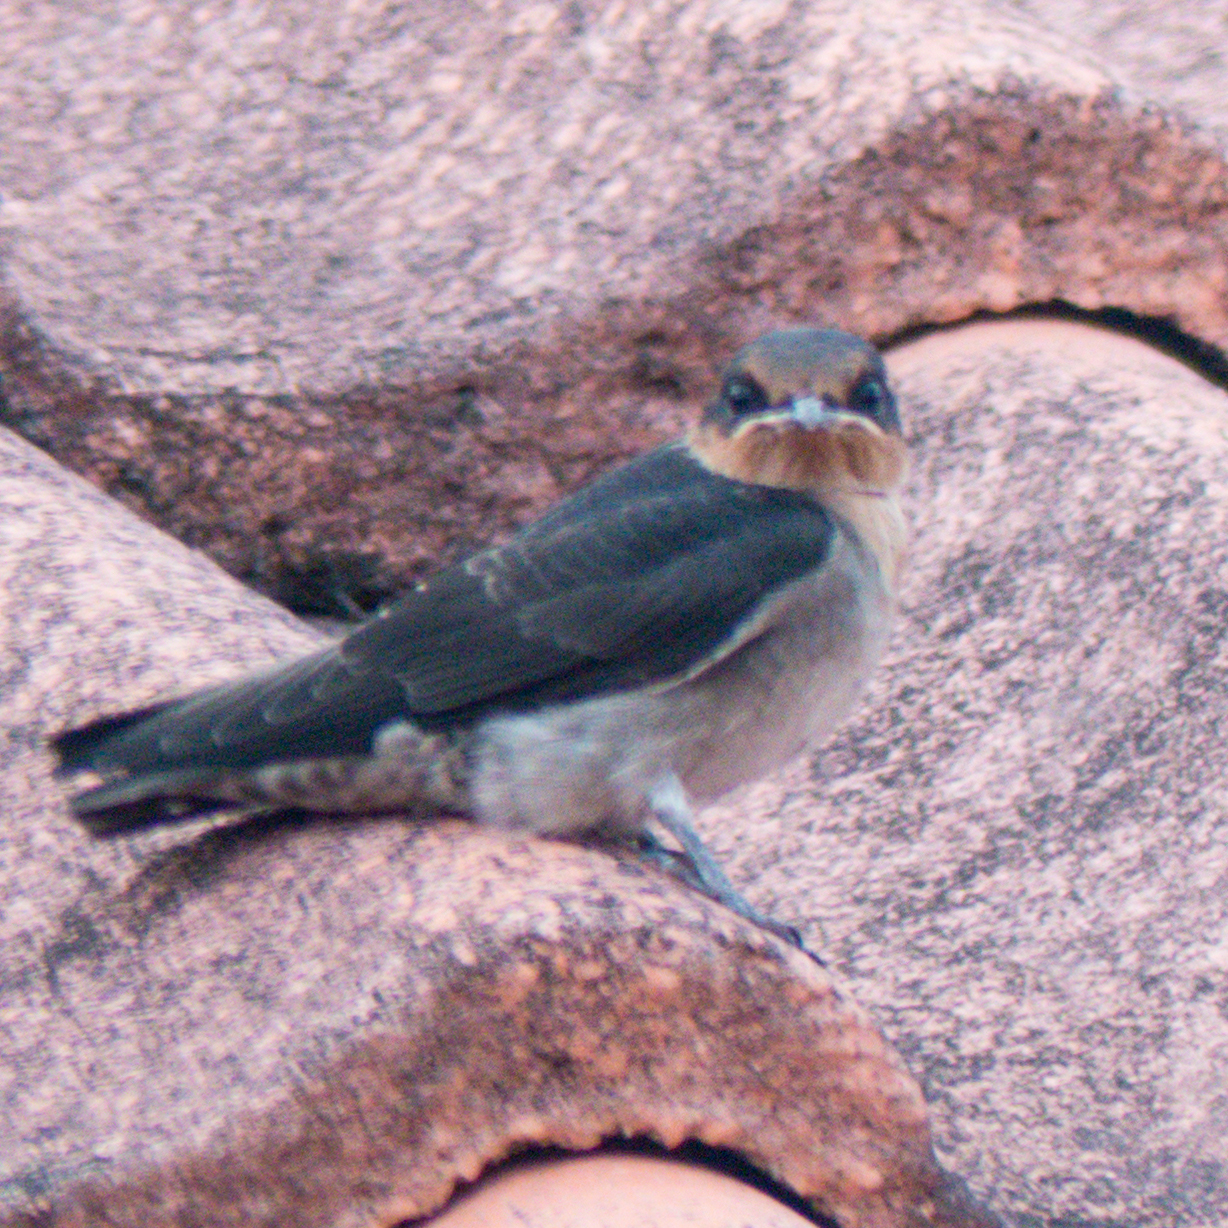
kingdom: Animalia
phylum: Chordata
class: Aves
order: Passeriformes
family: Hirundinidae
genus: Hirundo
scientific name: Hirundo tahitica
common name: Pacific swallow
